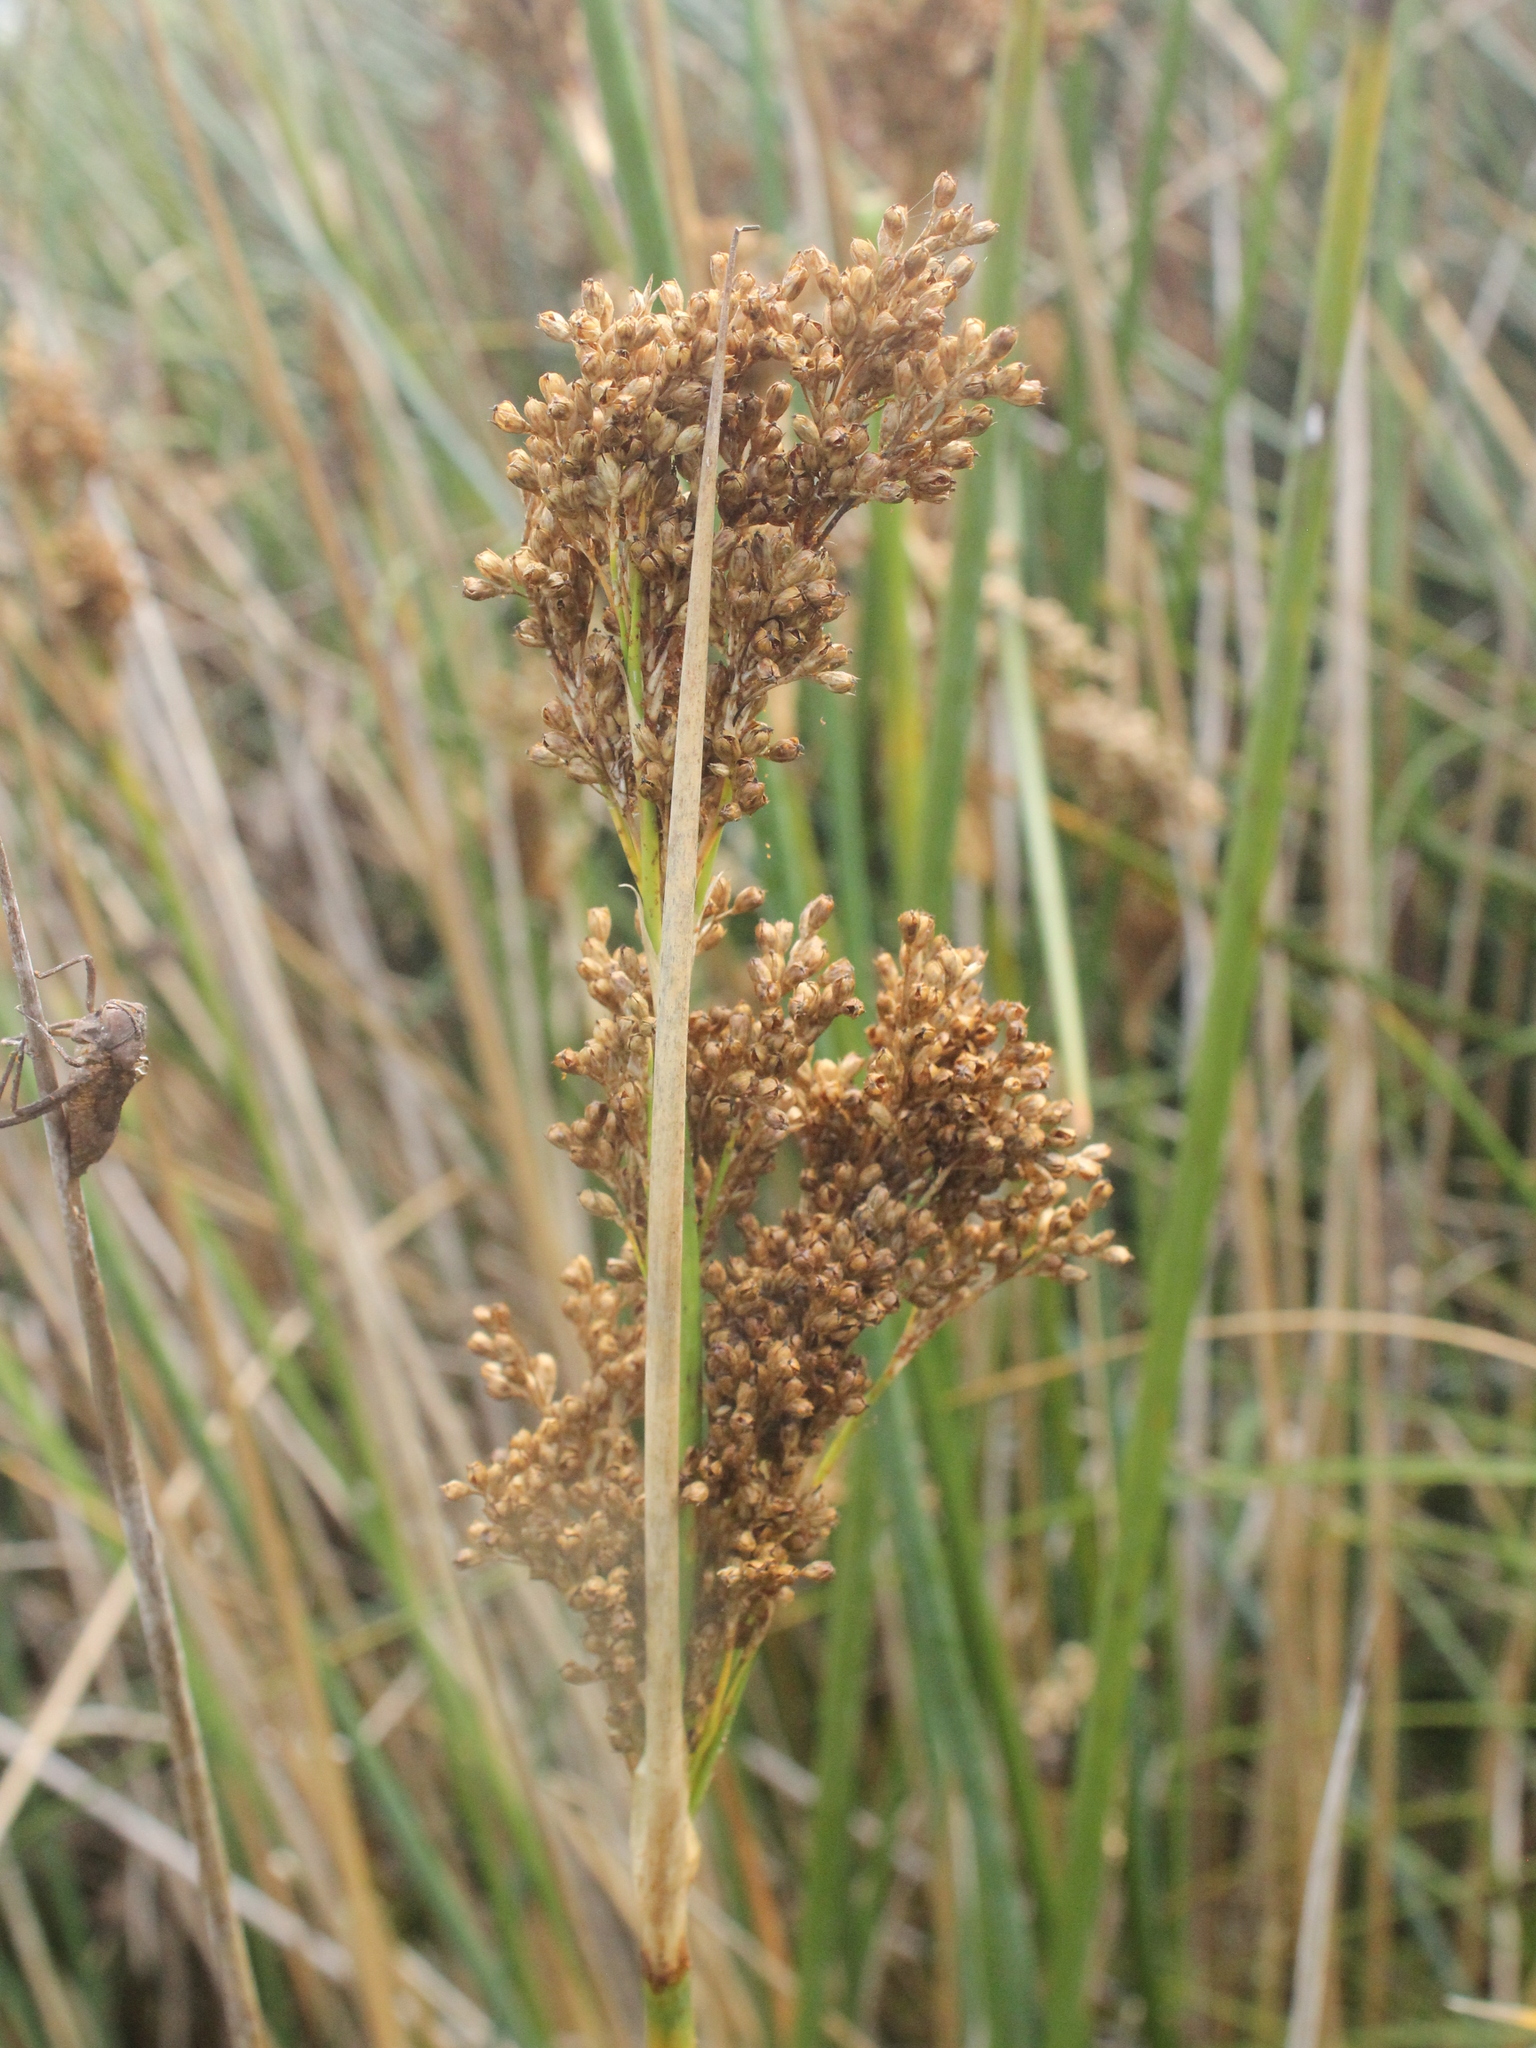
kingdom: Plantae
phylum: Tracheophyta
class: Liliopsida
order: Poales
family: Juncaceae
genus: Juncus
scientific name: Juncus pallidus
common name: Great soft-rush
